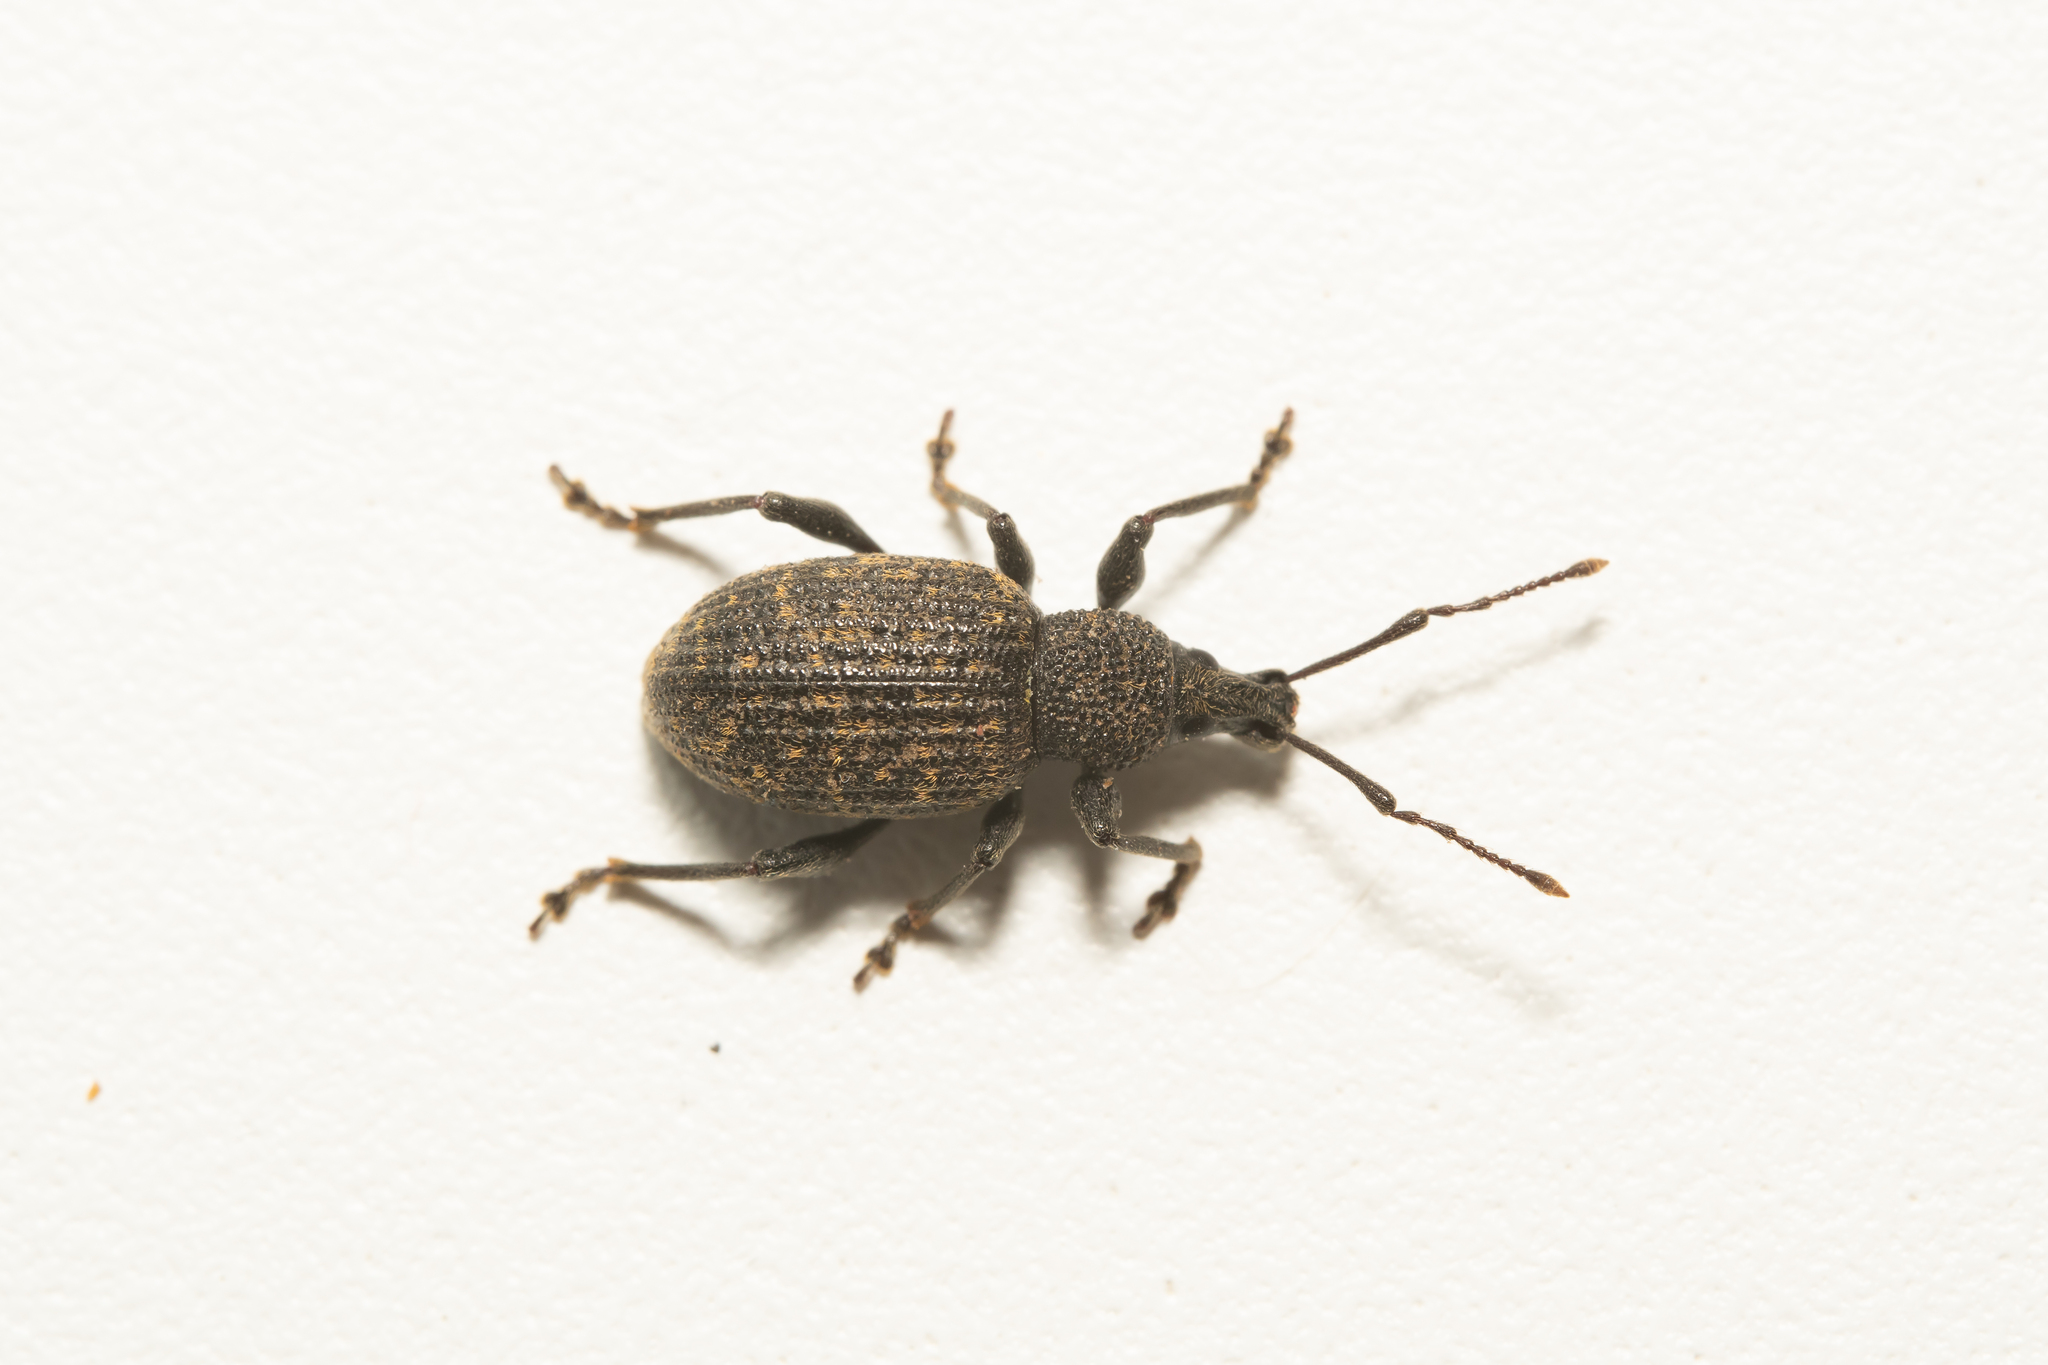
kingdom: Animalia
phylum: Arthropoda
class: Insecta
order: Coleoptera
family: Curculionidae
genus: Otiorhynchus
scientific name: Otiorhynchus sulcatus
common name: Black vine weevil
